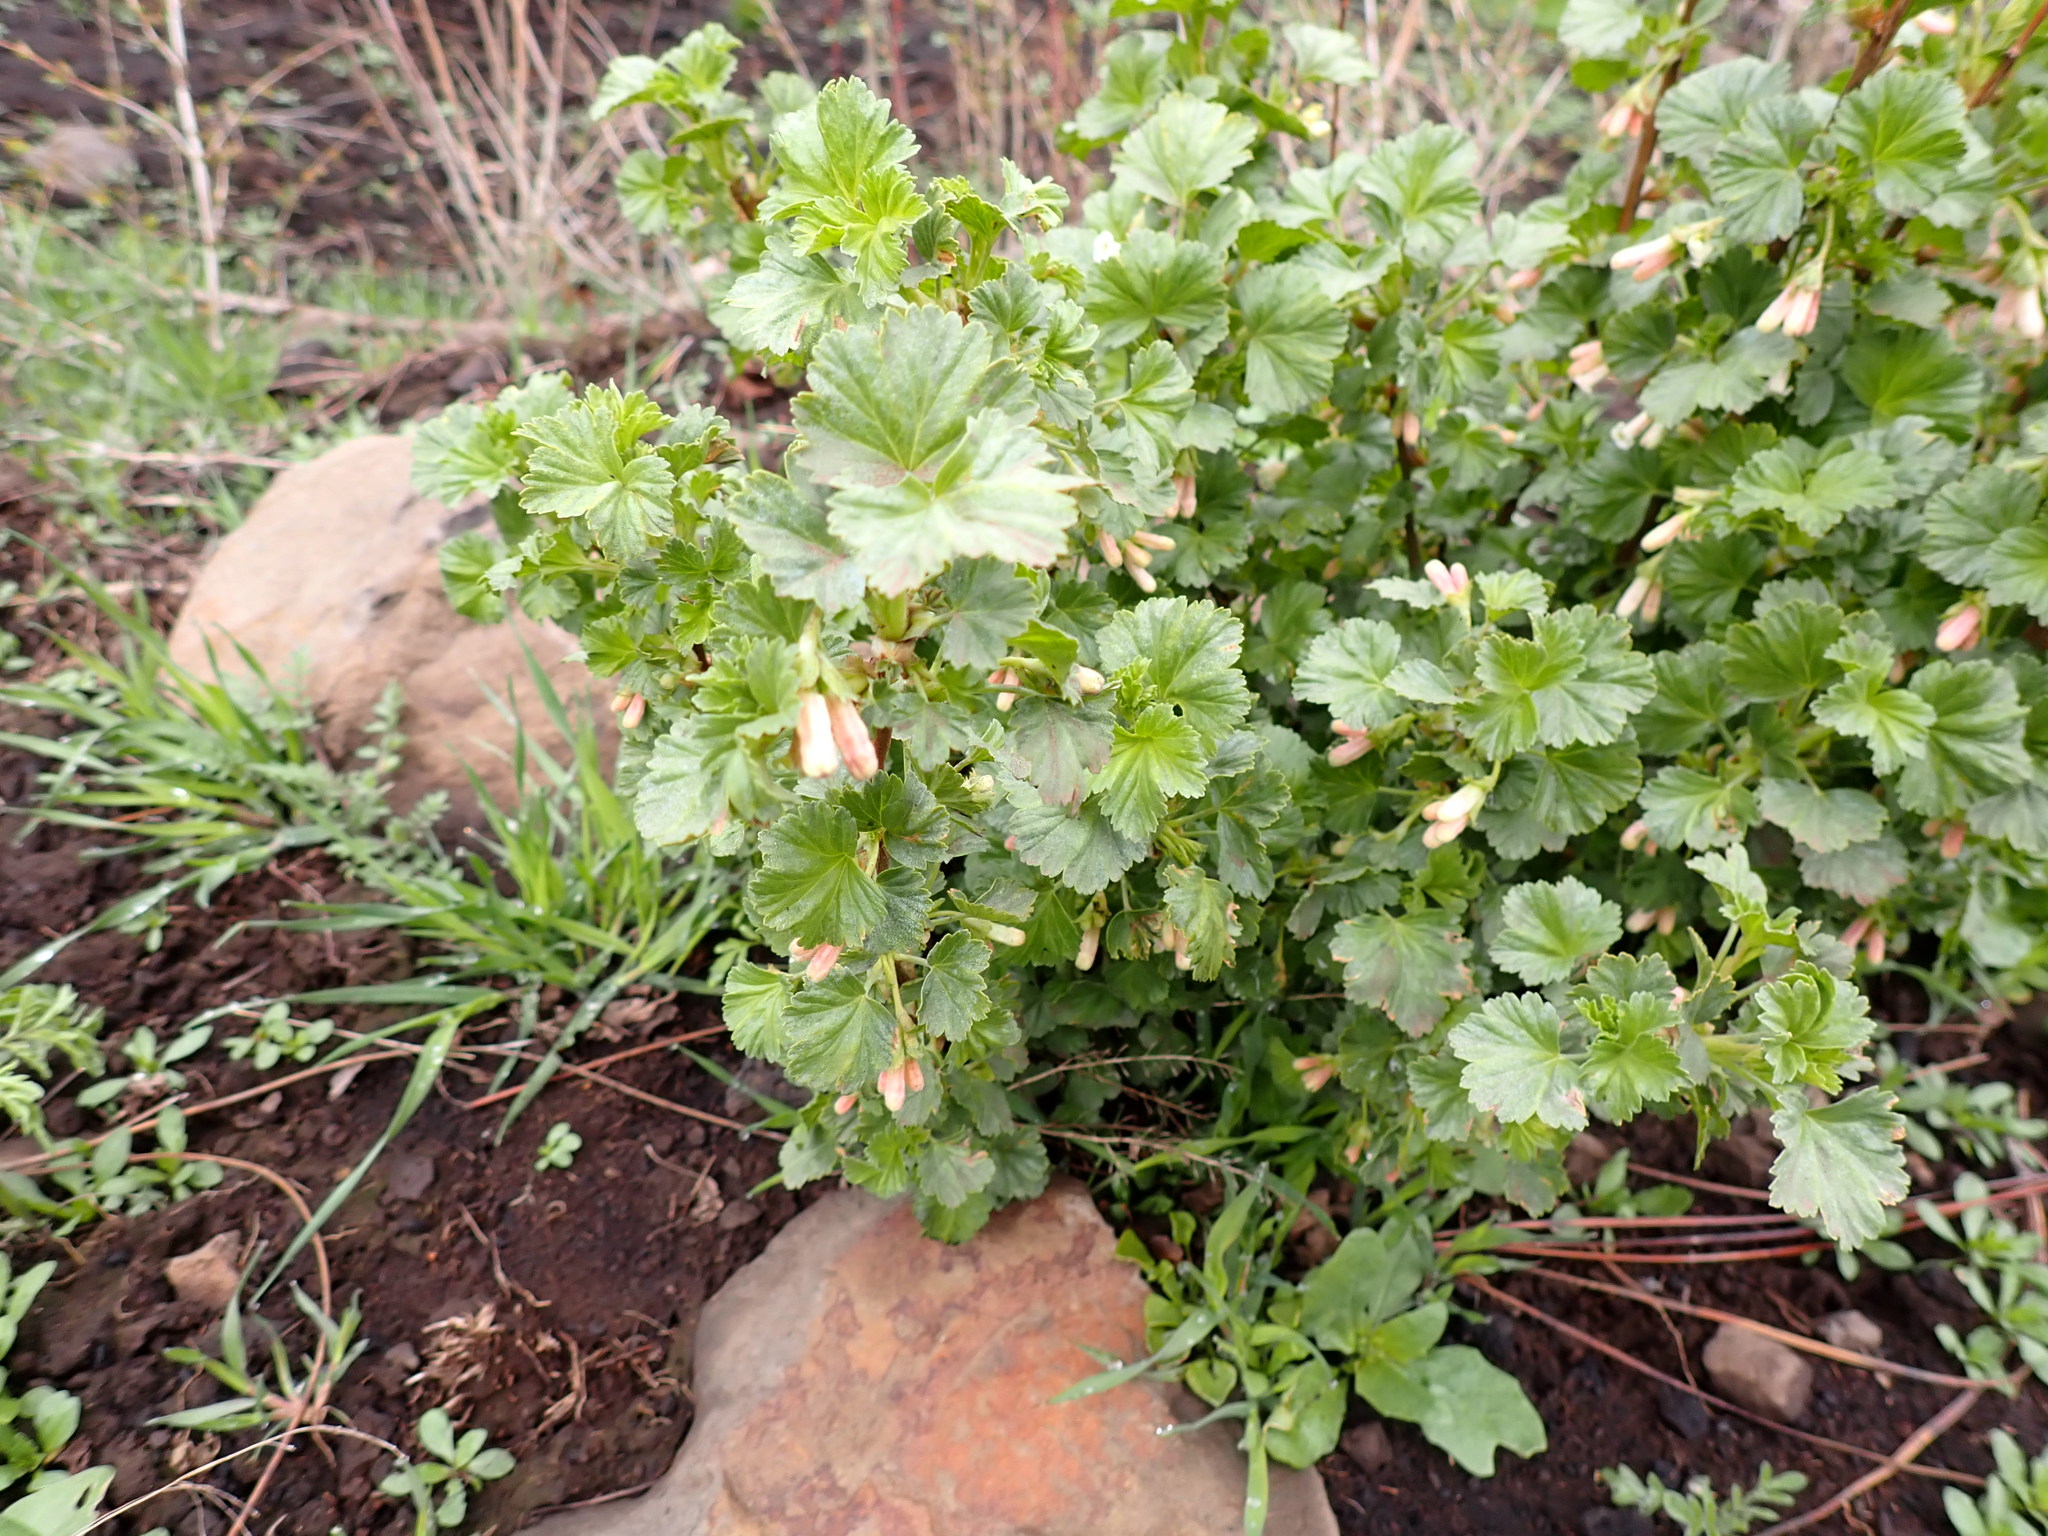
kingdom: Plantae
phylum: Tracheophyta
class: Magnoliopsida
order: Saxifragales
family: Grossulariaceae
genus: Ribes
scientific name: Ribes cereum
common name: Wax currant
